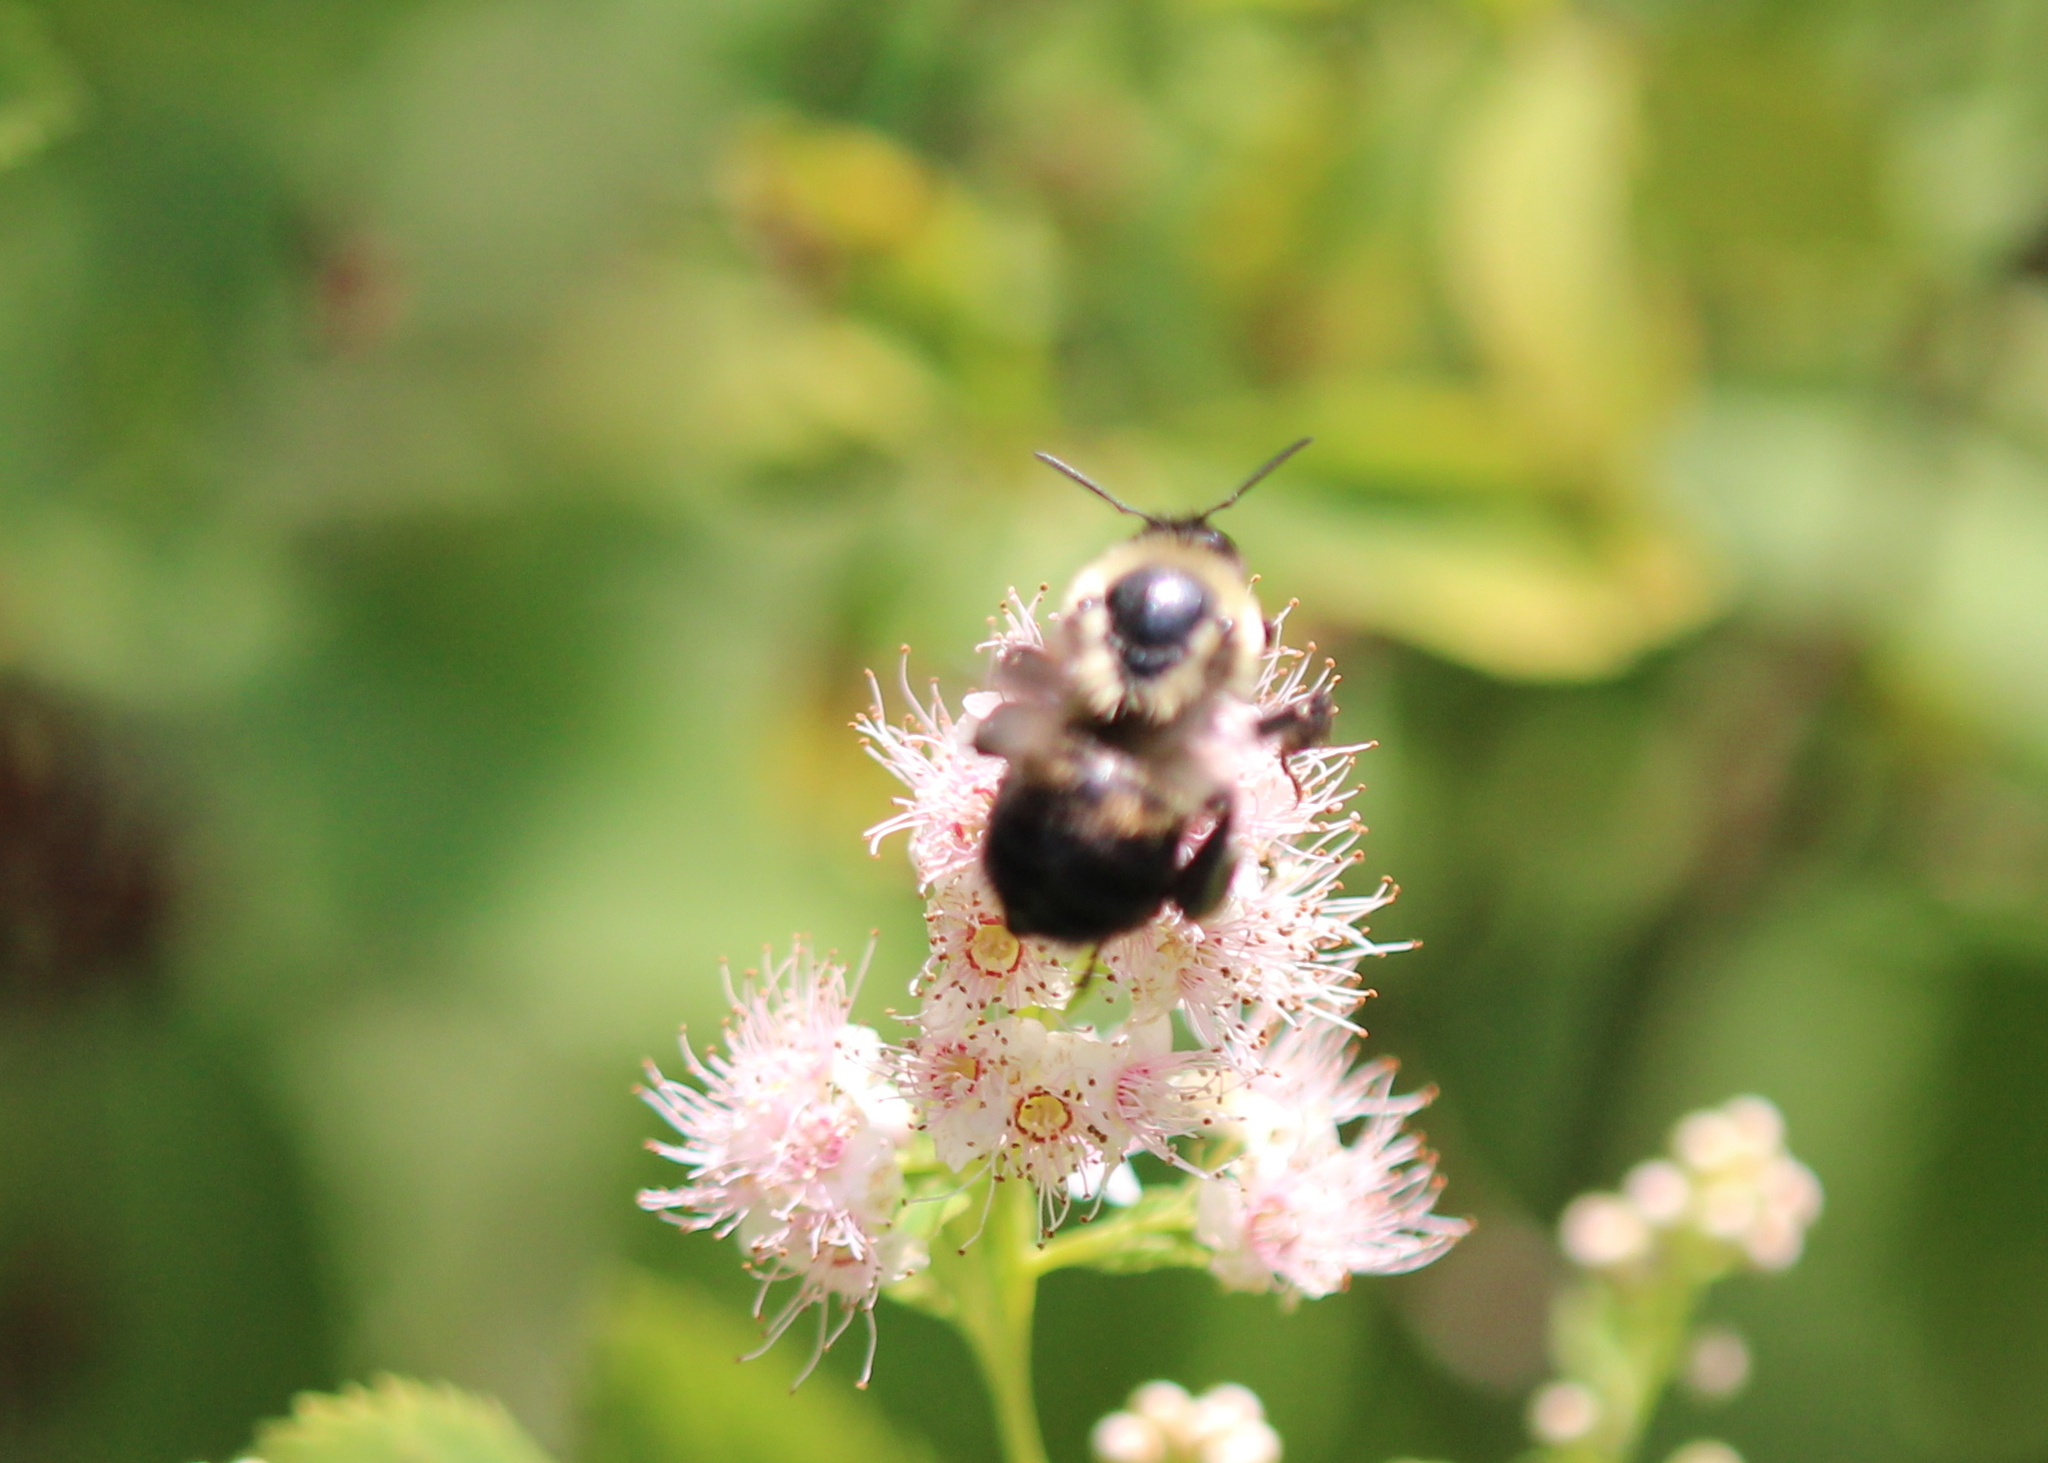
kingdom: Animalia
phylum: Arthropoda
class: Insecta
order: Hymenoptera
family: Apidae
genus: Bombus
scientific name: Bombus griseocollis
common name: Brown-belted bumble bee
